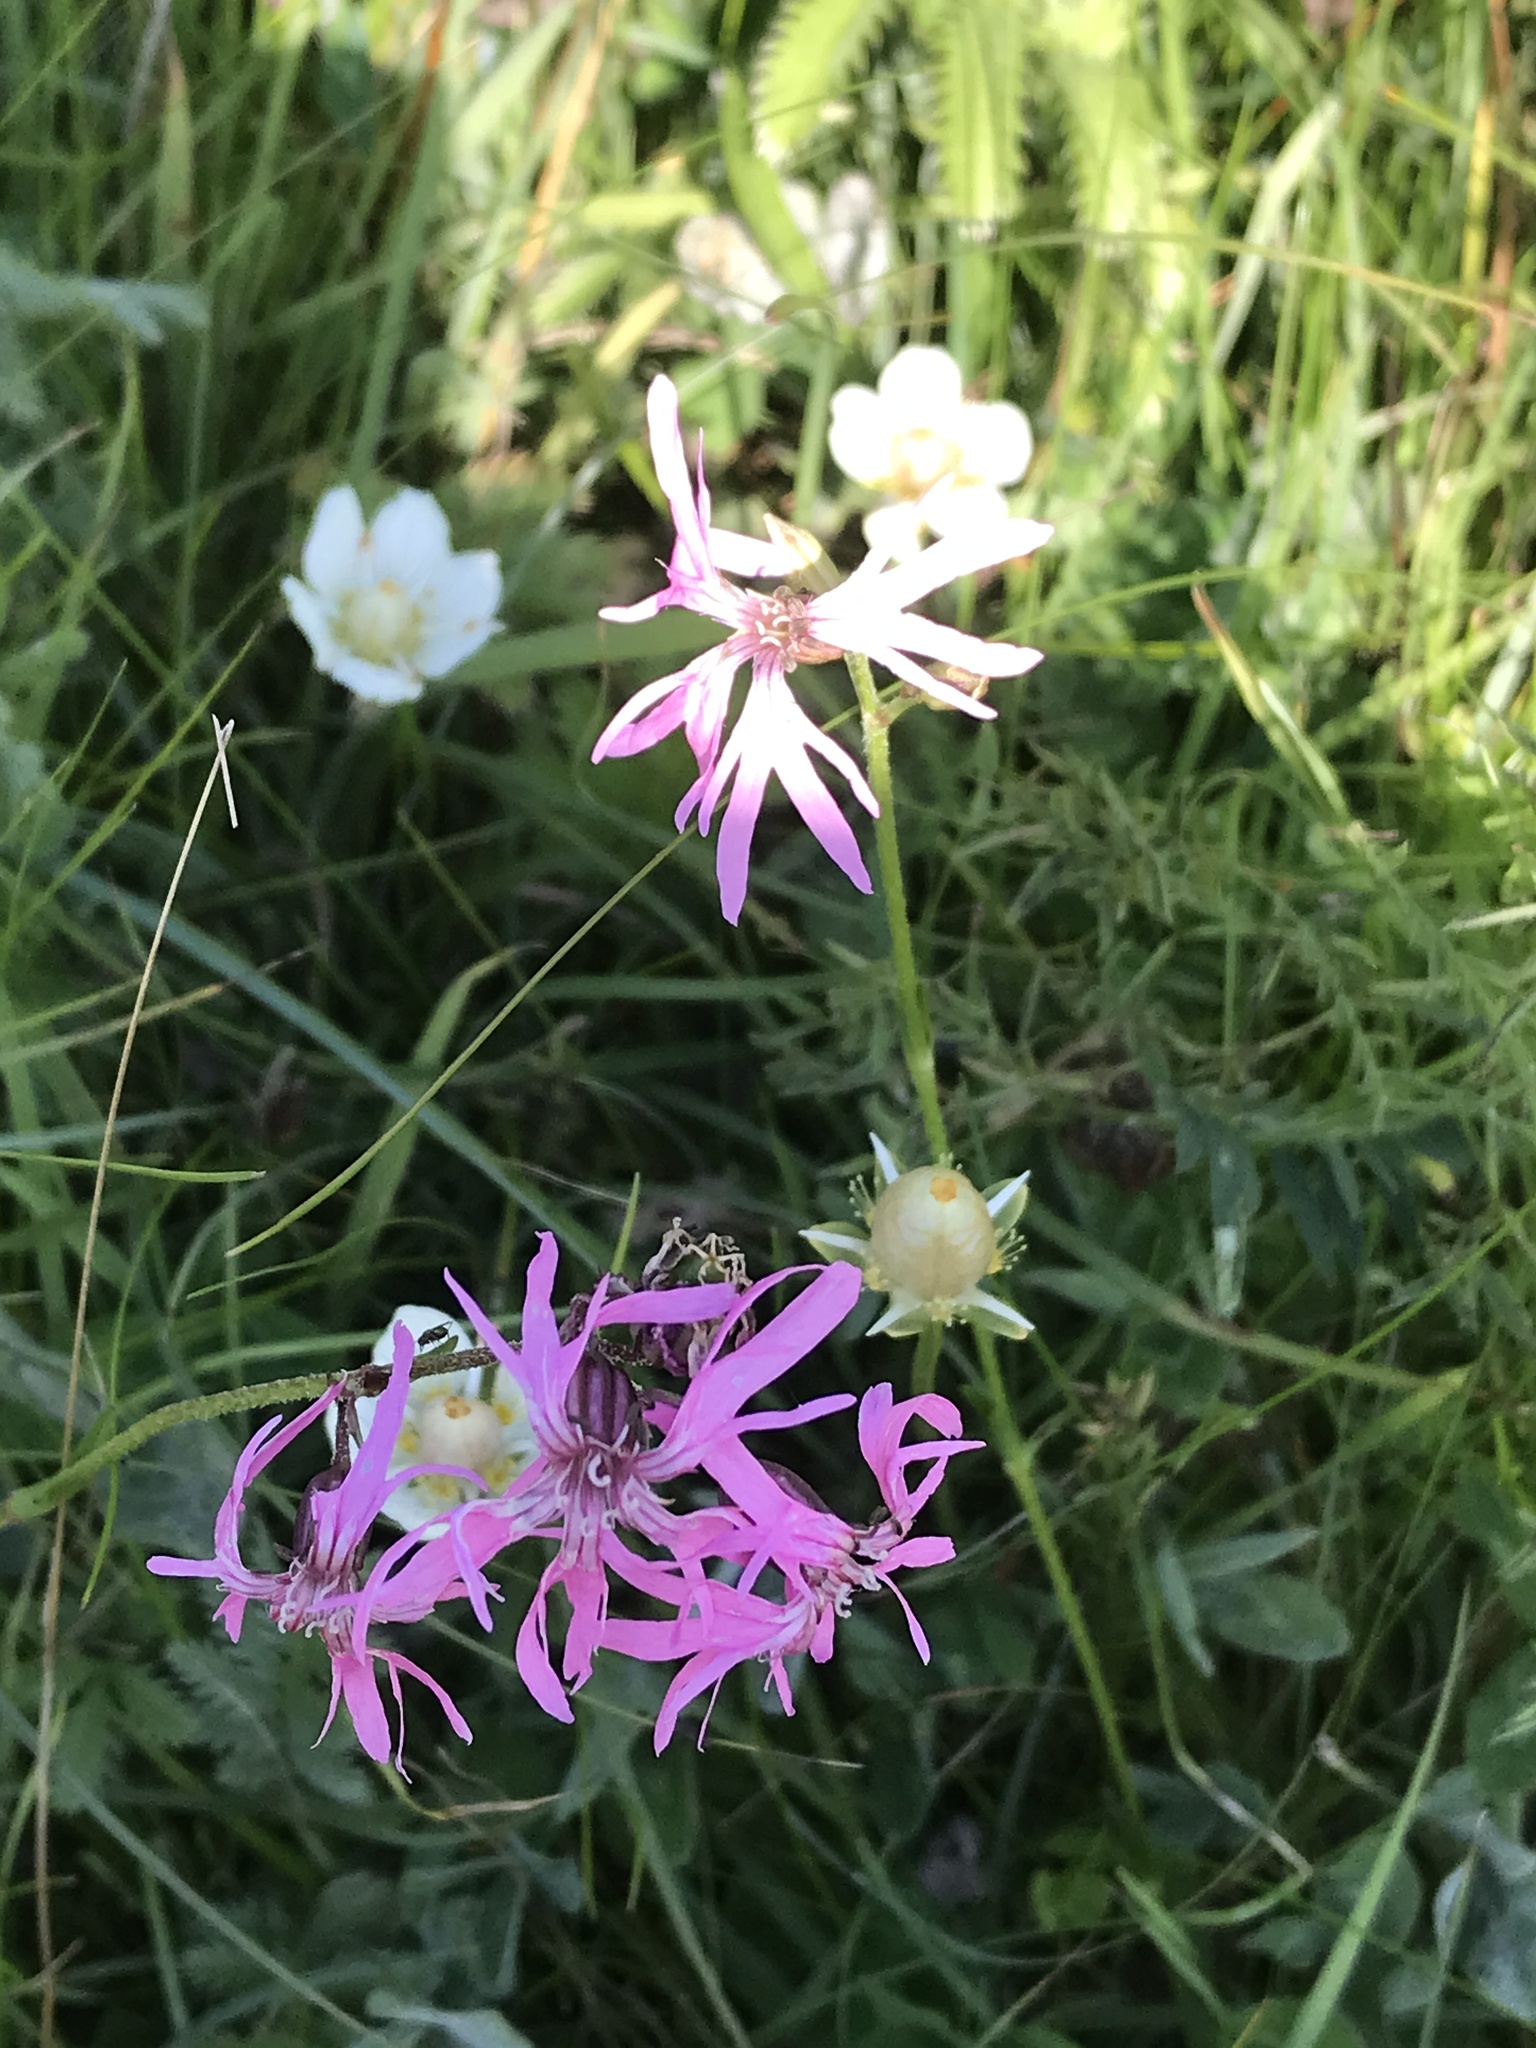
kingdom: Plantae
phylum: Tracheophyta
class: Magnoliopsida
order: Caryophyllales
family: Caryophyllaceae
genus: Silene
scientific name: Silene flos-cuculi
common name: Ragged-robin
